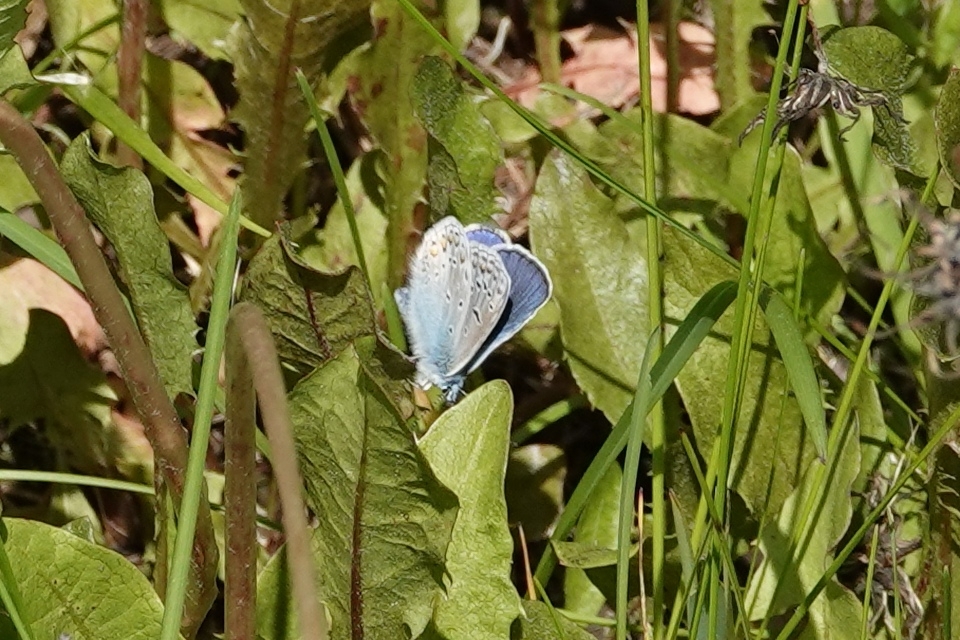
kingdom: Animalia
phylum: Arthropoda
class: Insecta
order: Lepidoptera
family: Lycaenidae
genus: Polyommatus
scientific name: Polyommatus icarus
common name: Common blue
